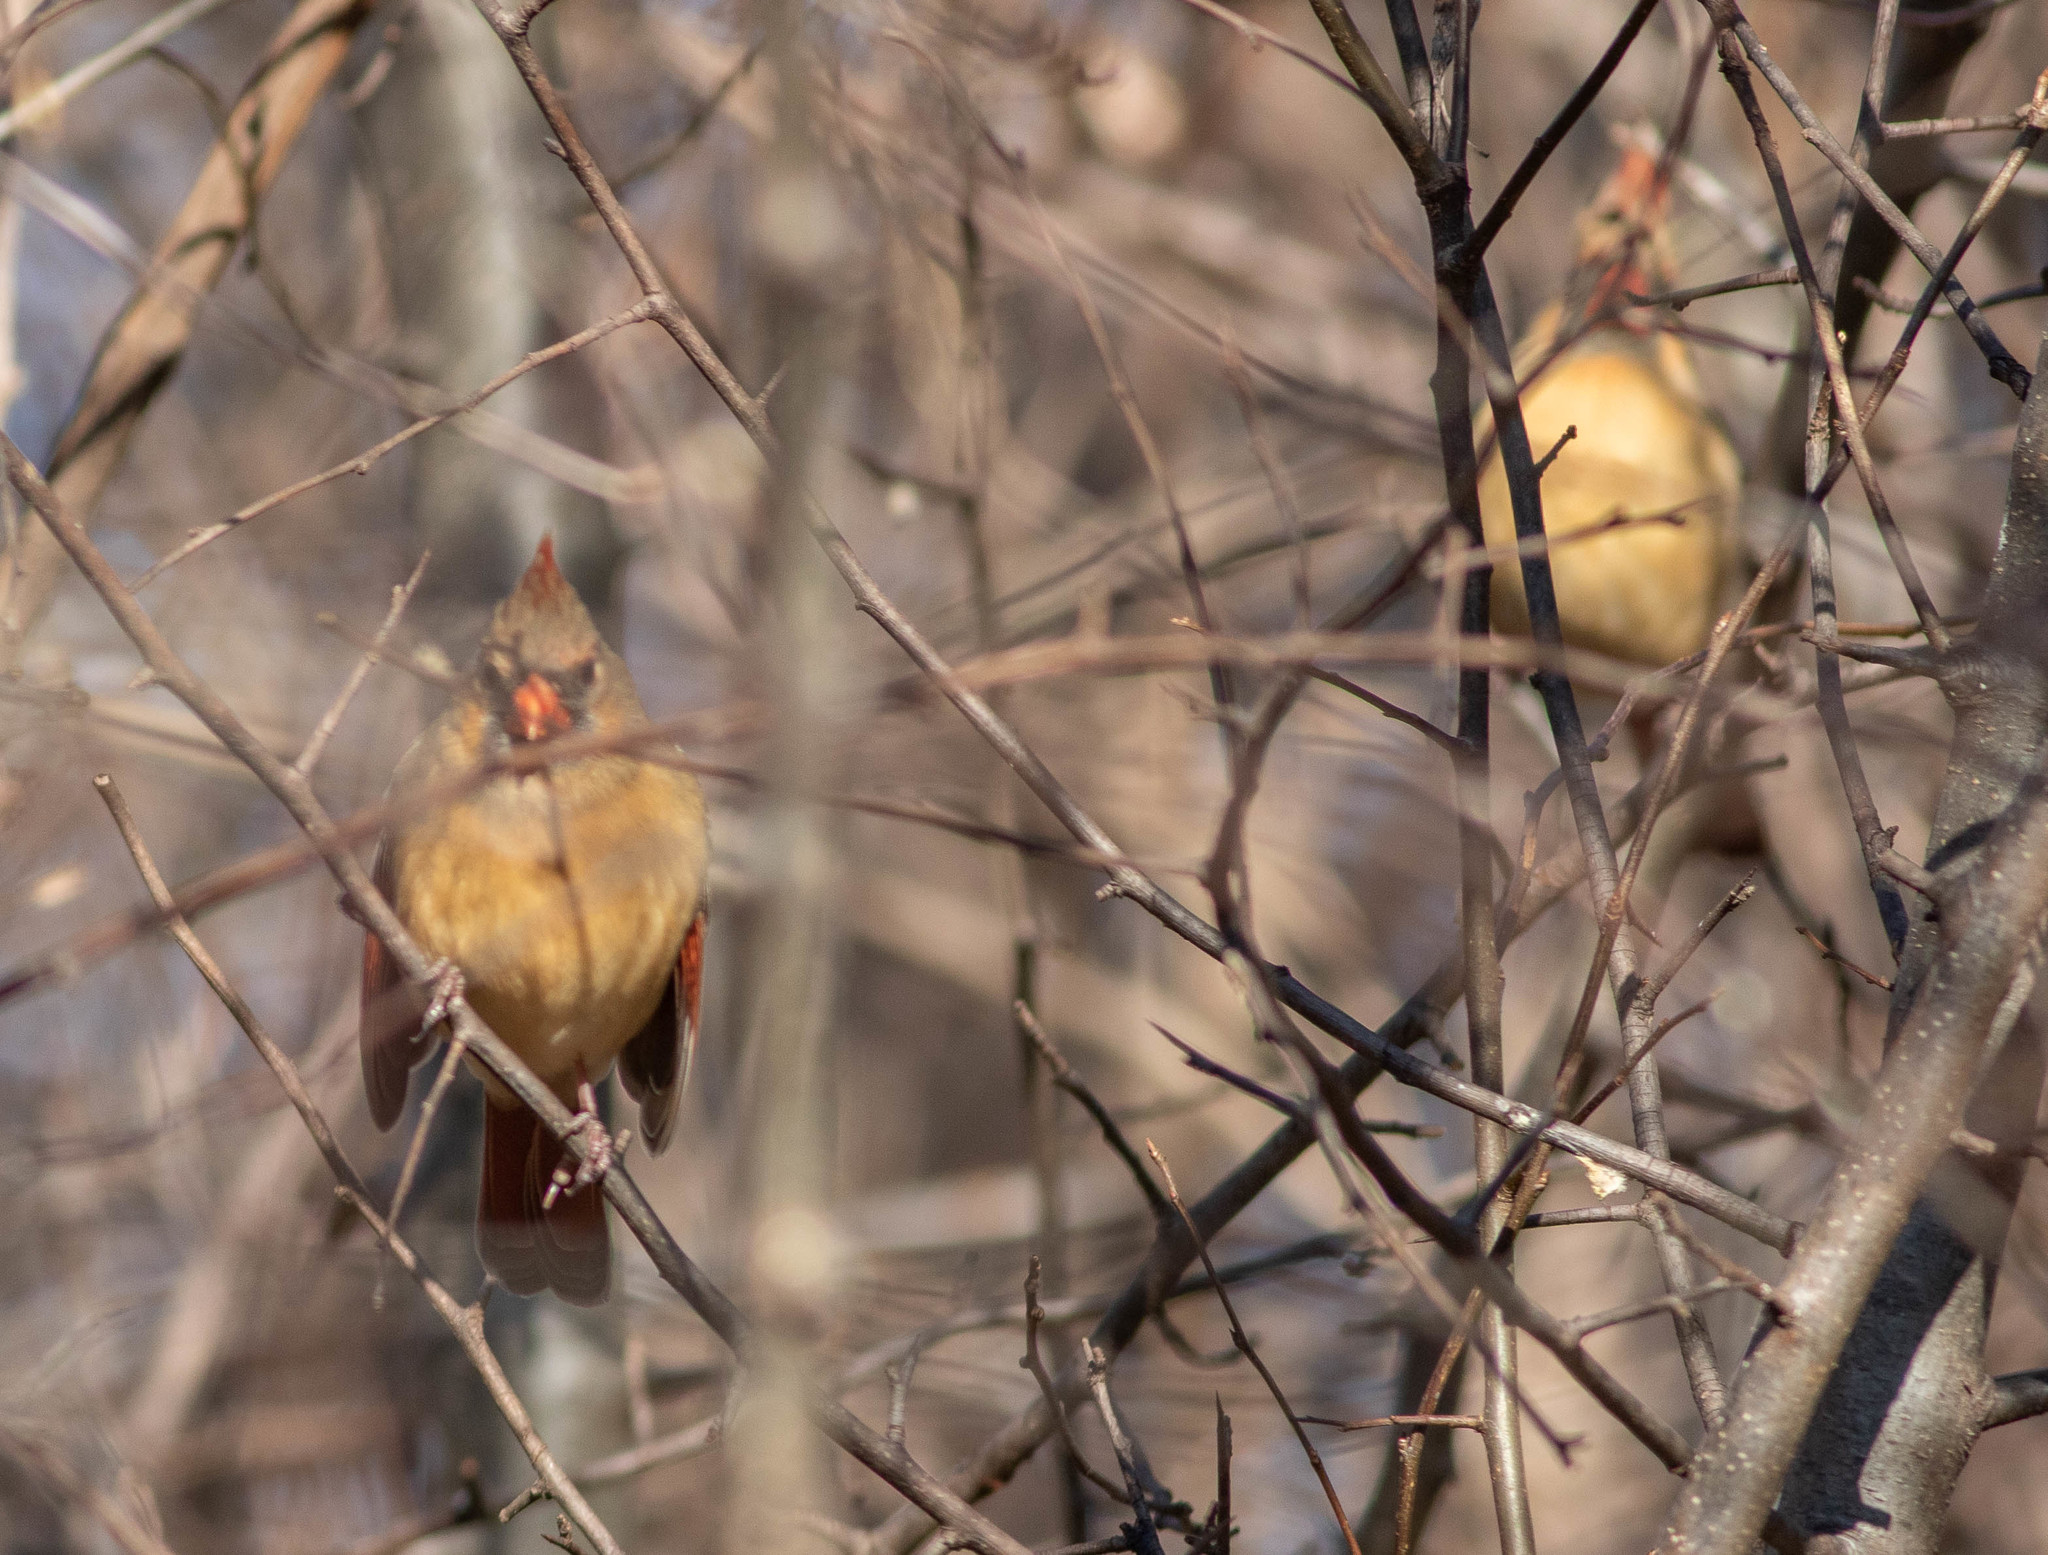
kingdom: Animalia
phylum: Chordata
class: Aves
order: Passeriformes
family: Cardinalidae
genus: Cardinalis
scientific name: Cardinalis cardinalis
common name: Northern cardinal
